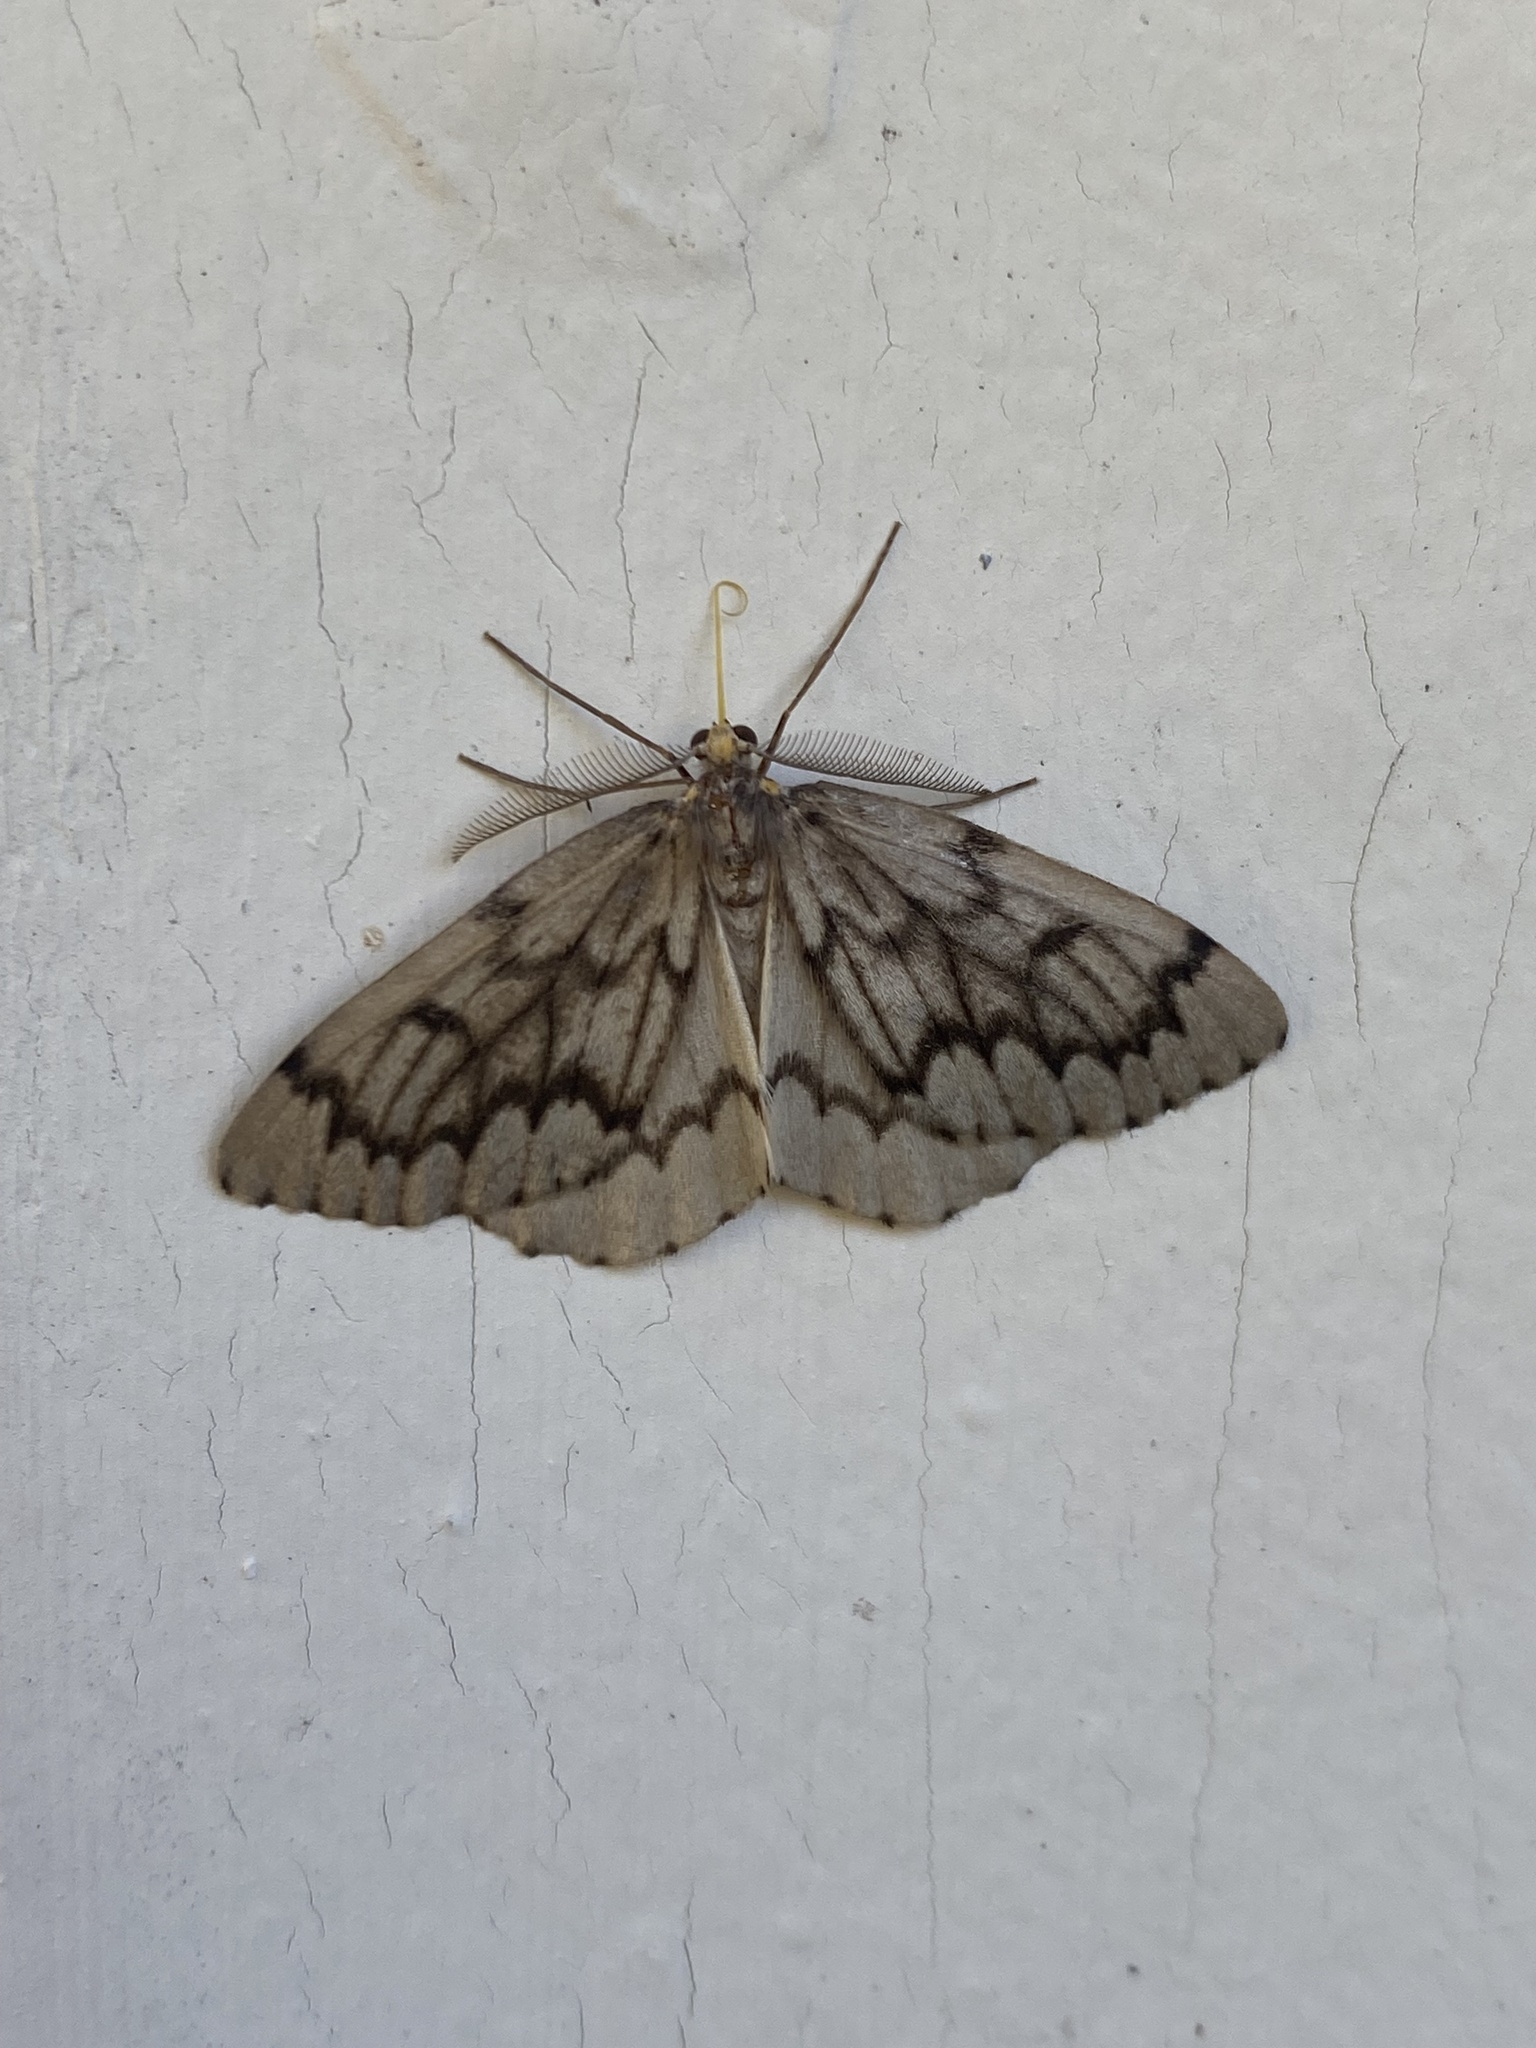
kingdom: Animalia
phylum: Arthropoda
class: Insecta
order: Lepidoptera
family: Geometridae
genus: Nepytia
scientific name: Nepytia phantasmaria
